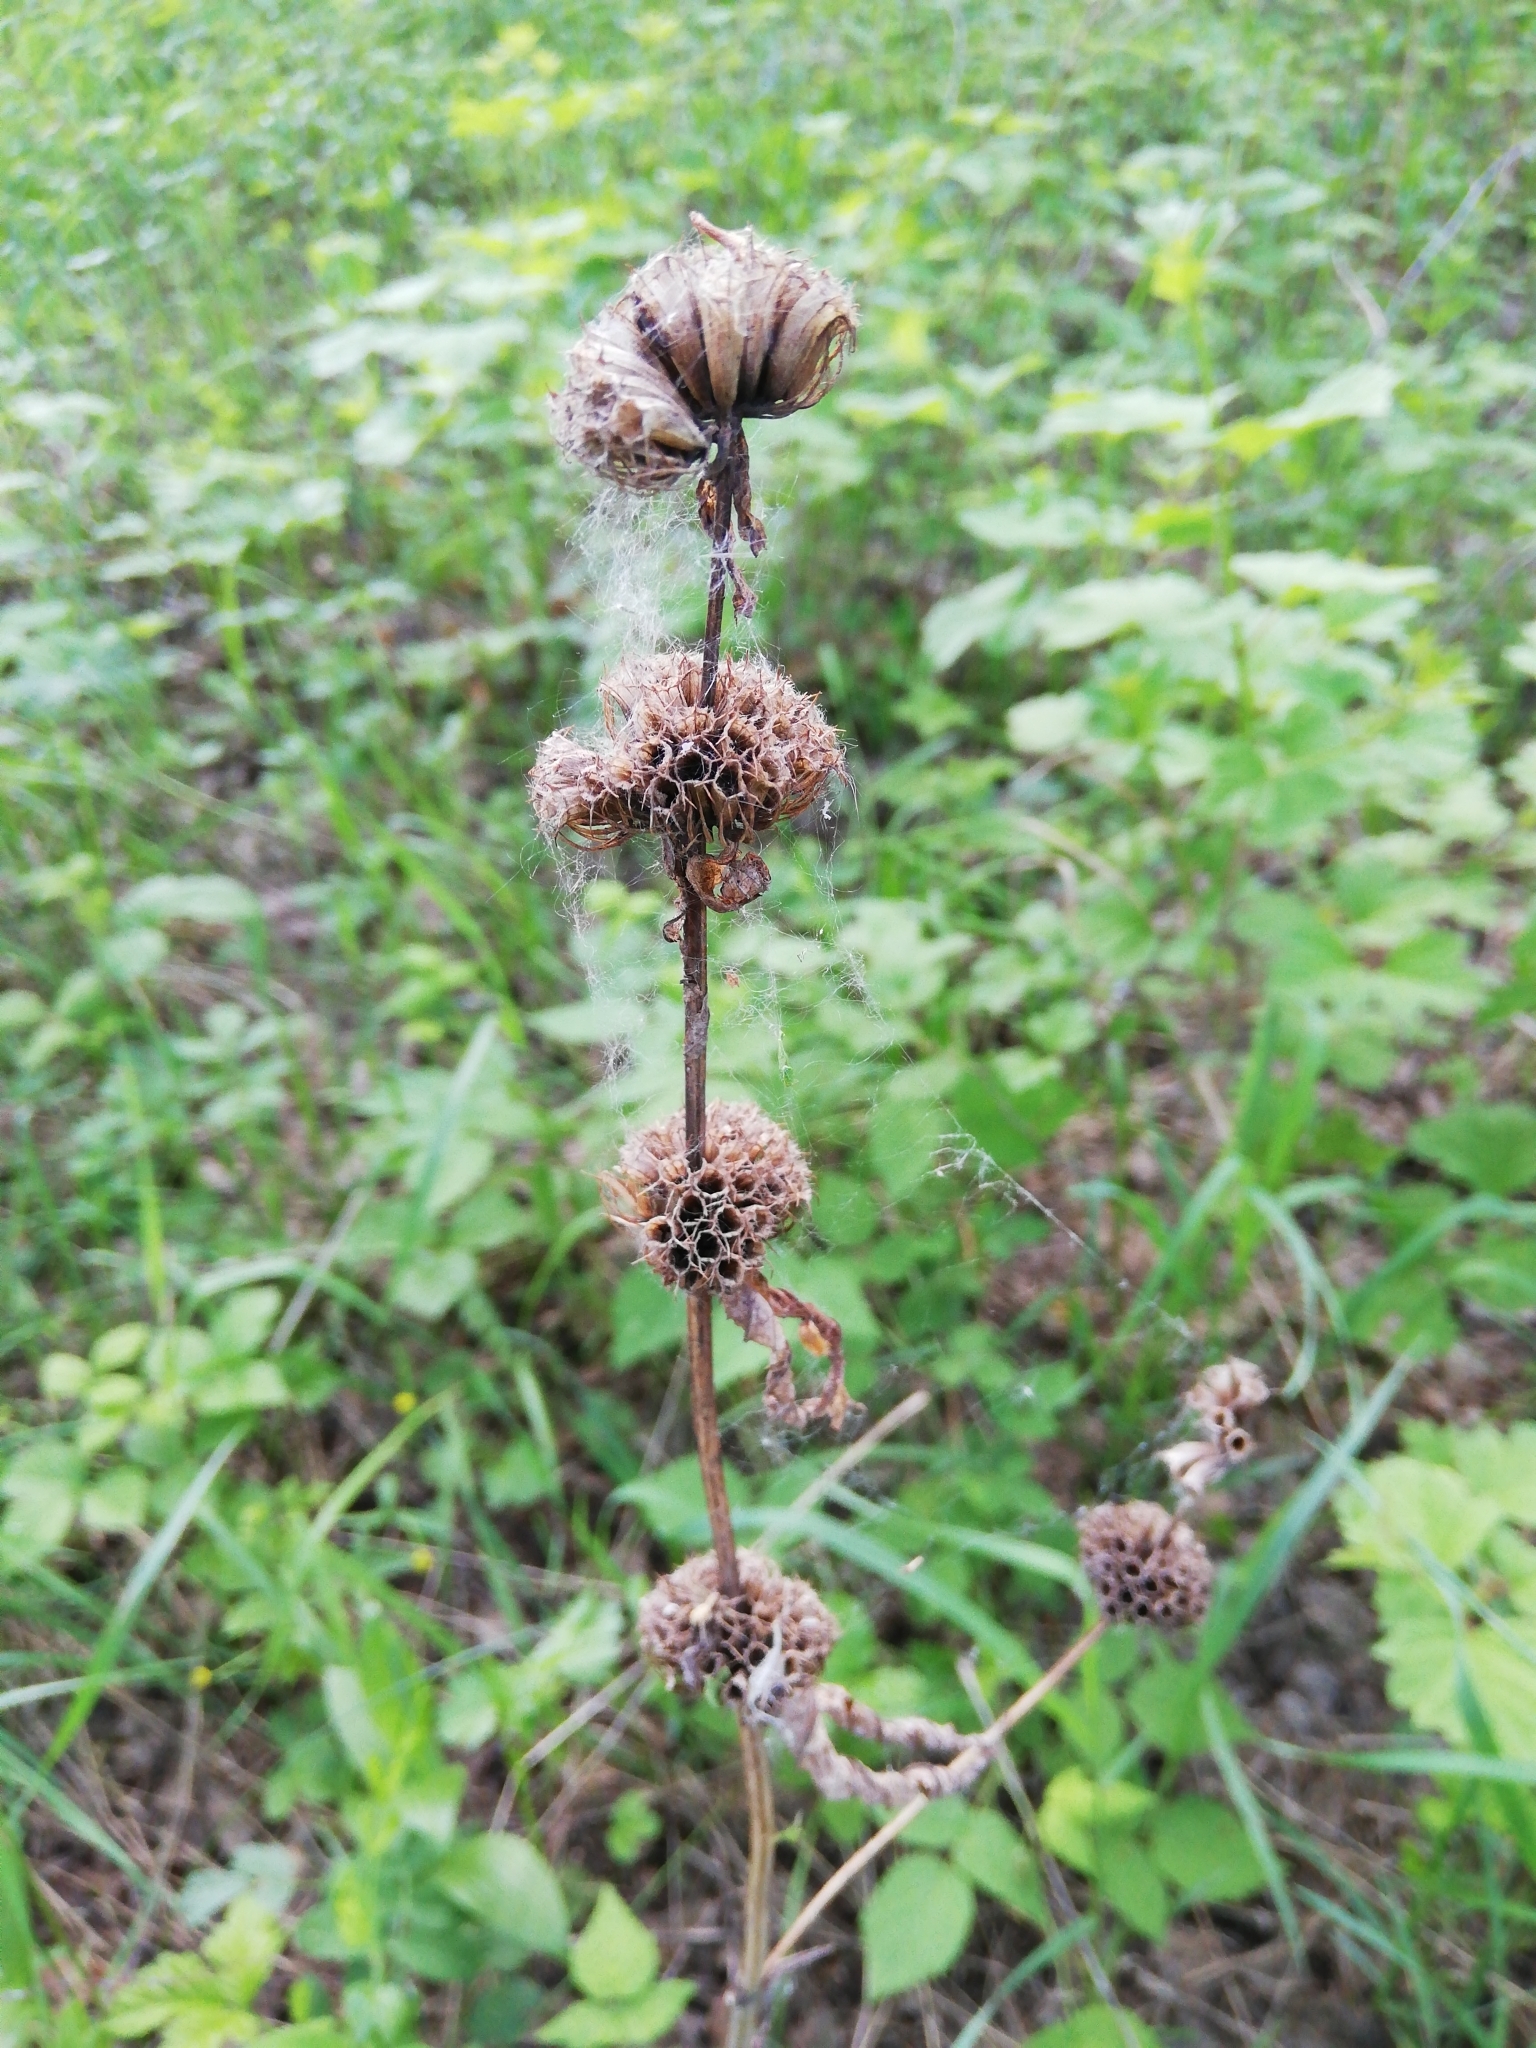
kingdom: Plantae
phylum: Tracheophyta
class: Magnoliopsida
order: Lamiales
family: Lamiaceae
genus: Phlomoides
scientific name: Phlomoides tuberosa
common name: Tuberous jerusalem sage
